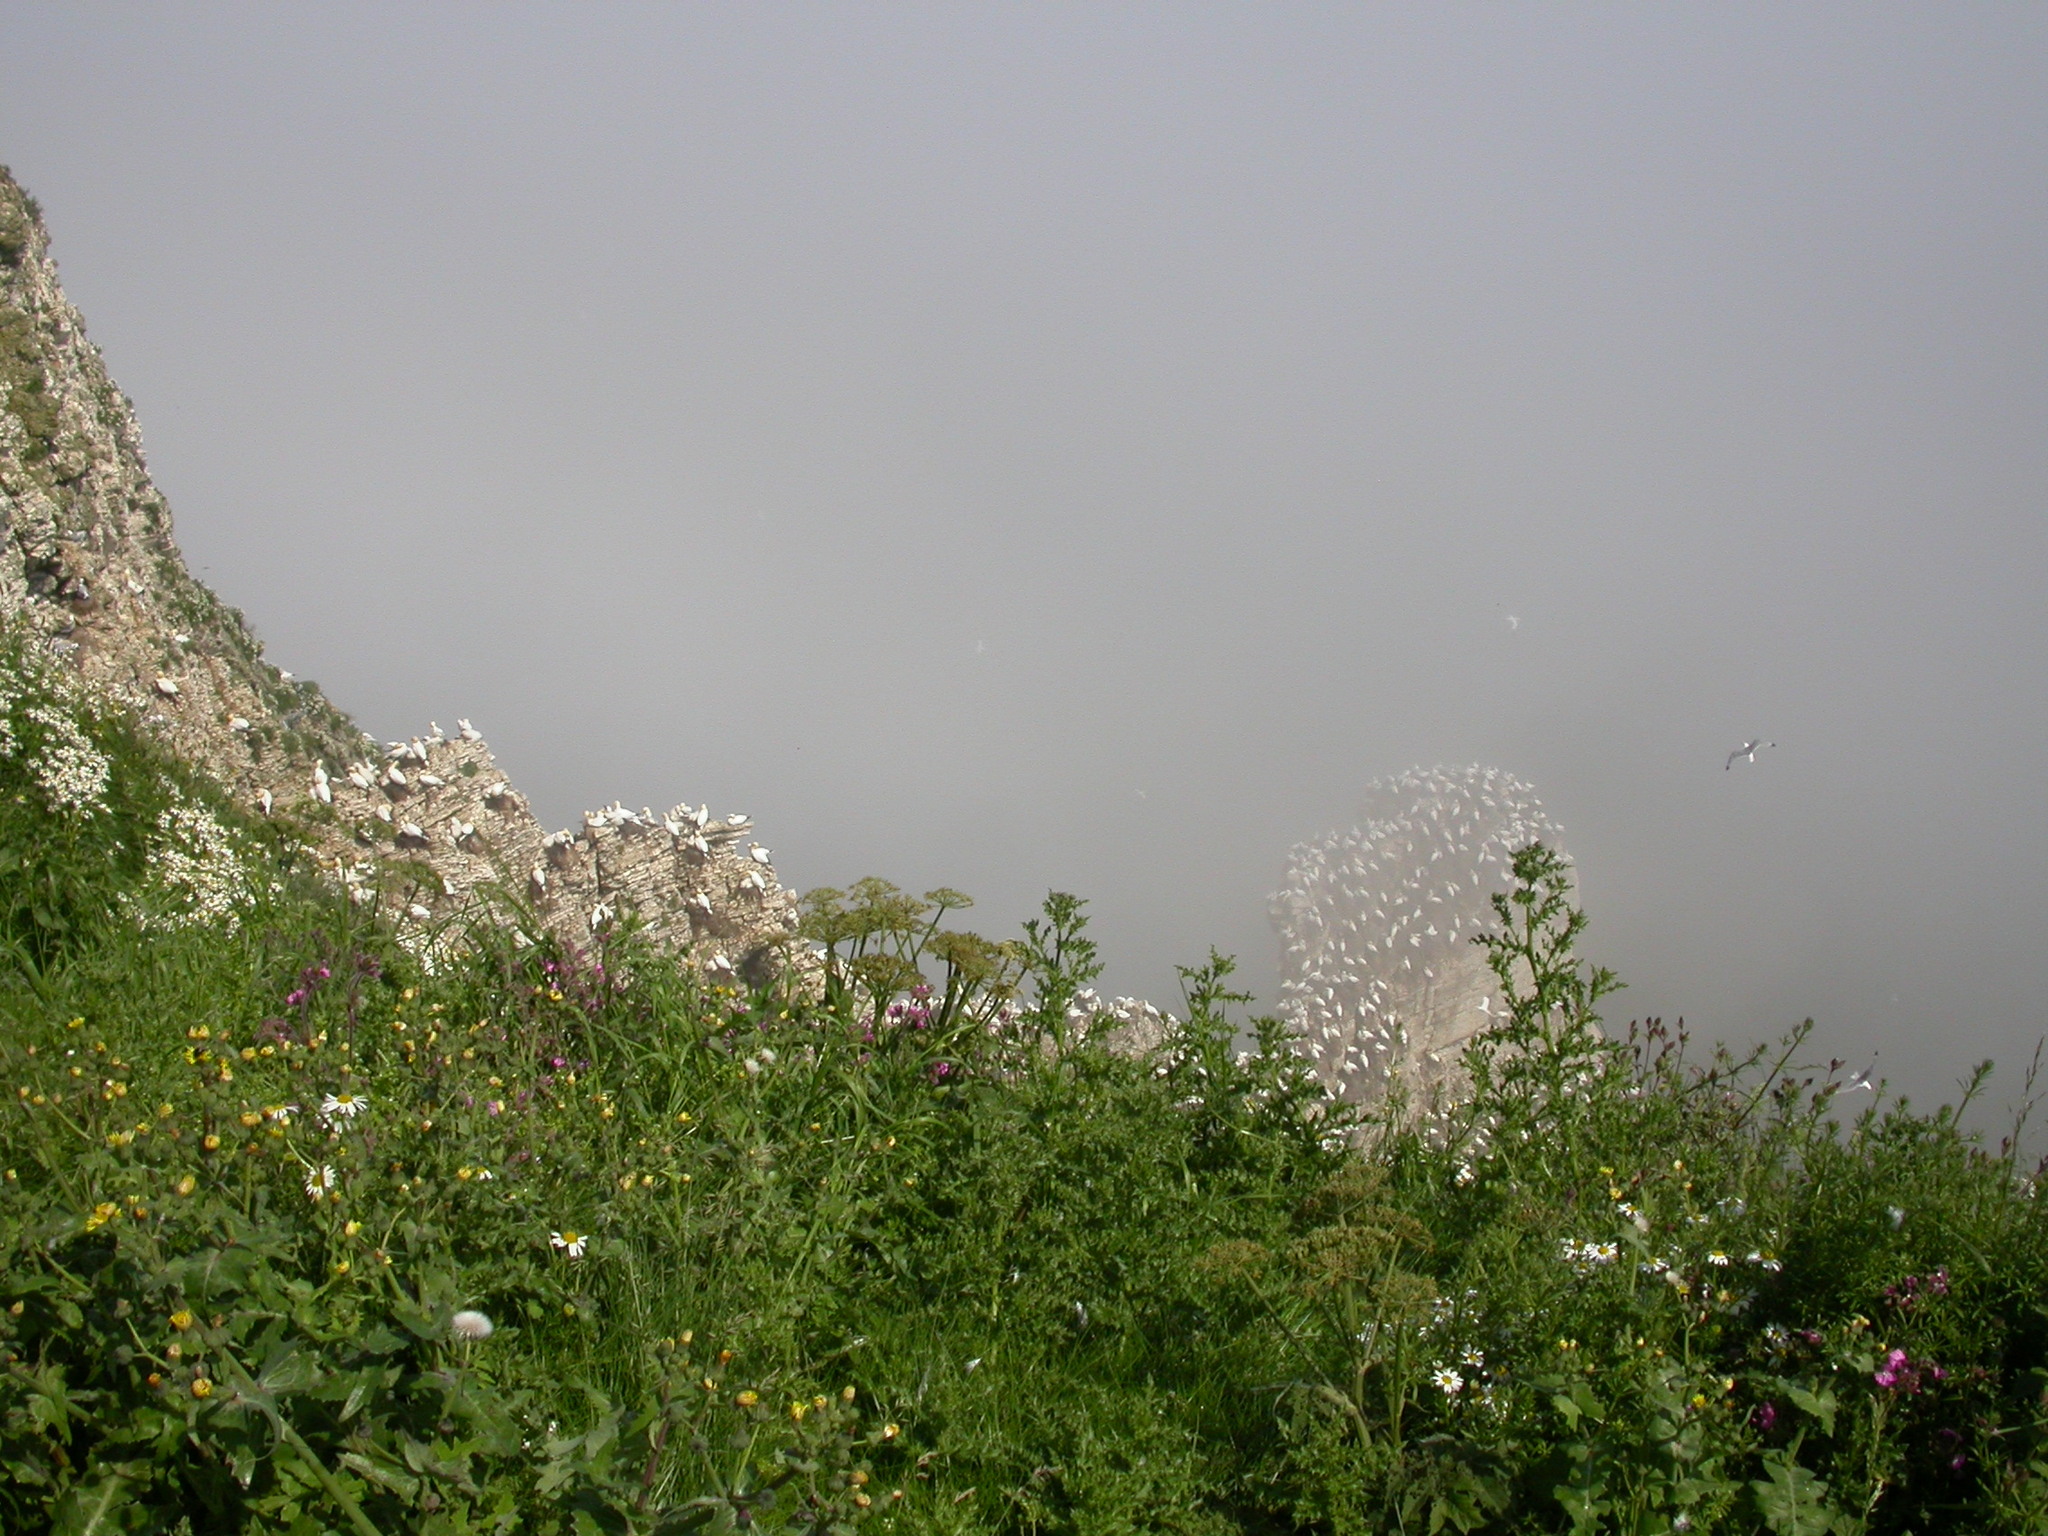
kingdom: Animalia
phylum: Chordata
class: Aves
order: Suliformes
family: Sulidae
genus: Morus
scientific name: Morus bassanus
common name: Northern gannet
